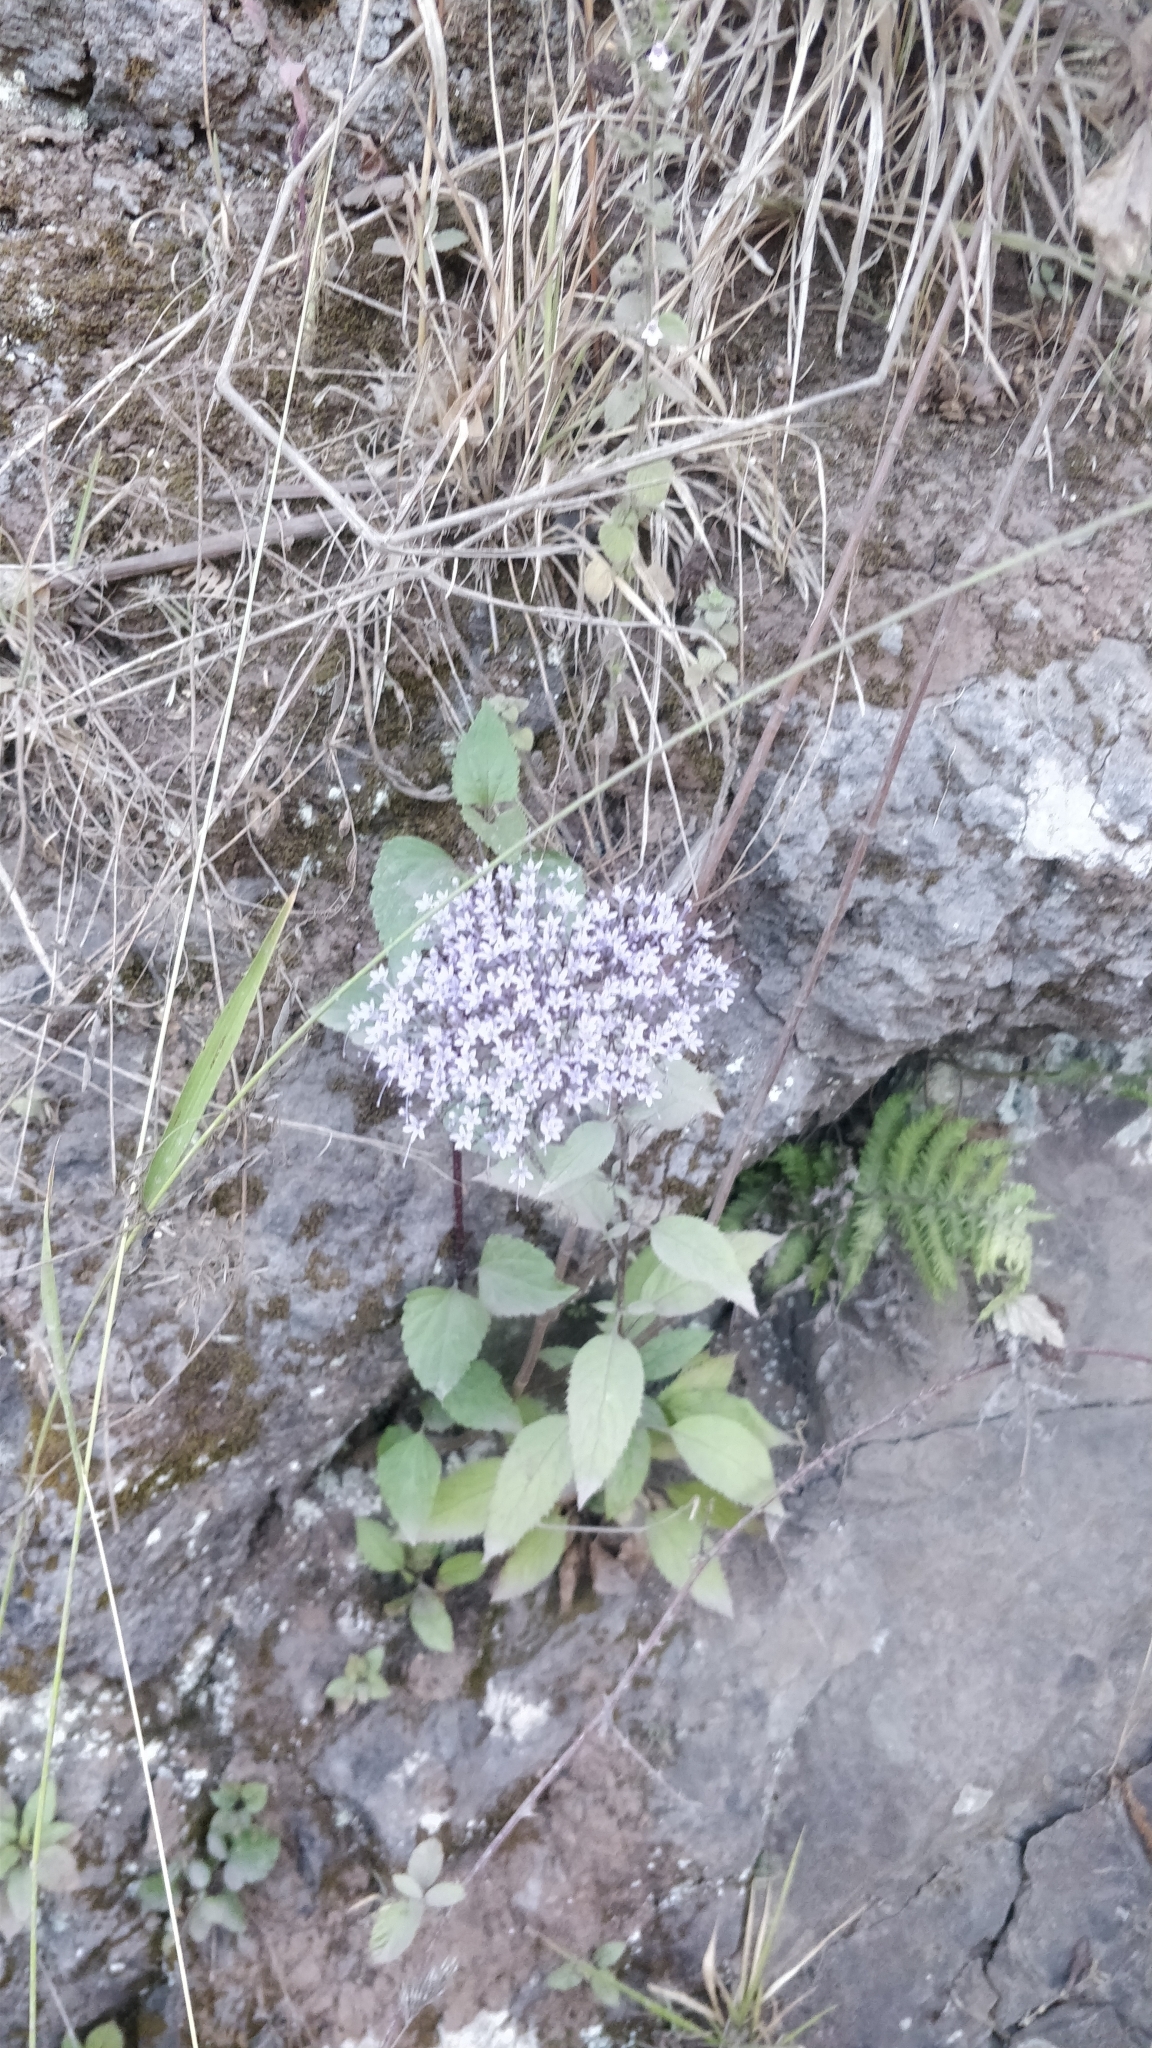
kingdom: Plantae
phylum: Tracheophyta
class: Magnoliopsida
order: Asterales
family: Campanulaceae
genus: Trachelium
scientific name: Trachelium caeruleum
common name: Throatwort
